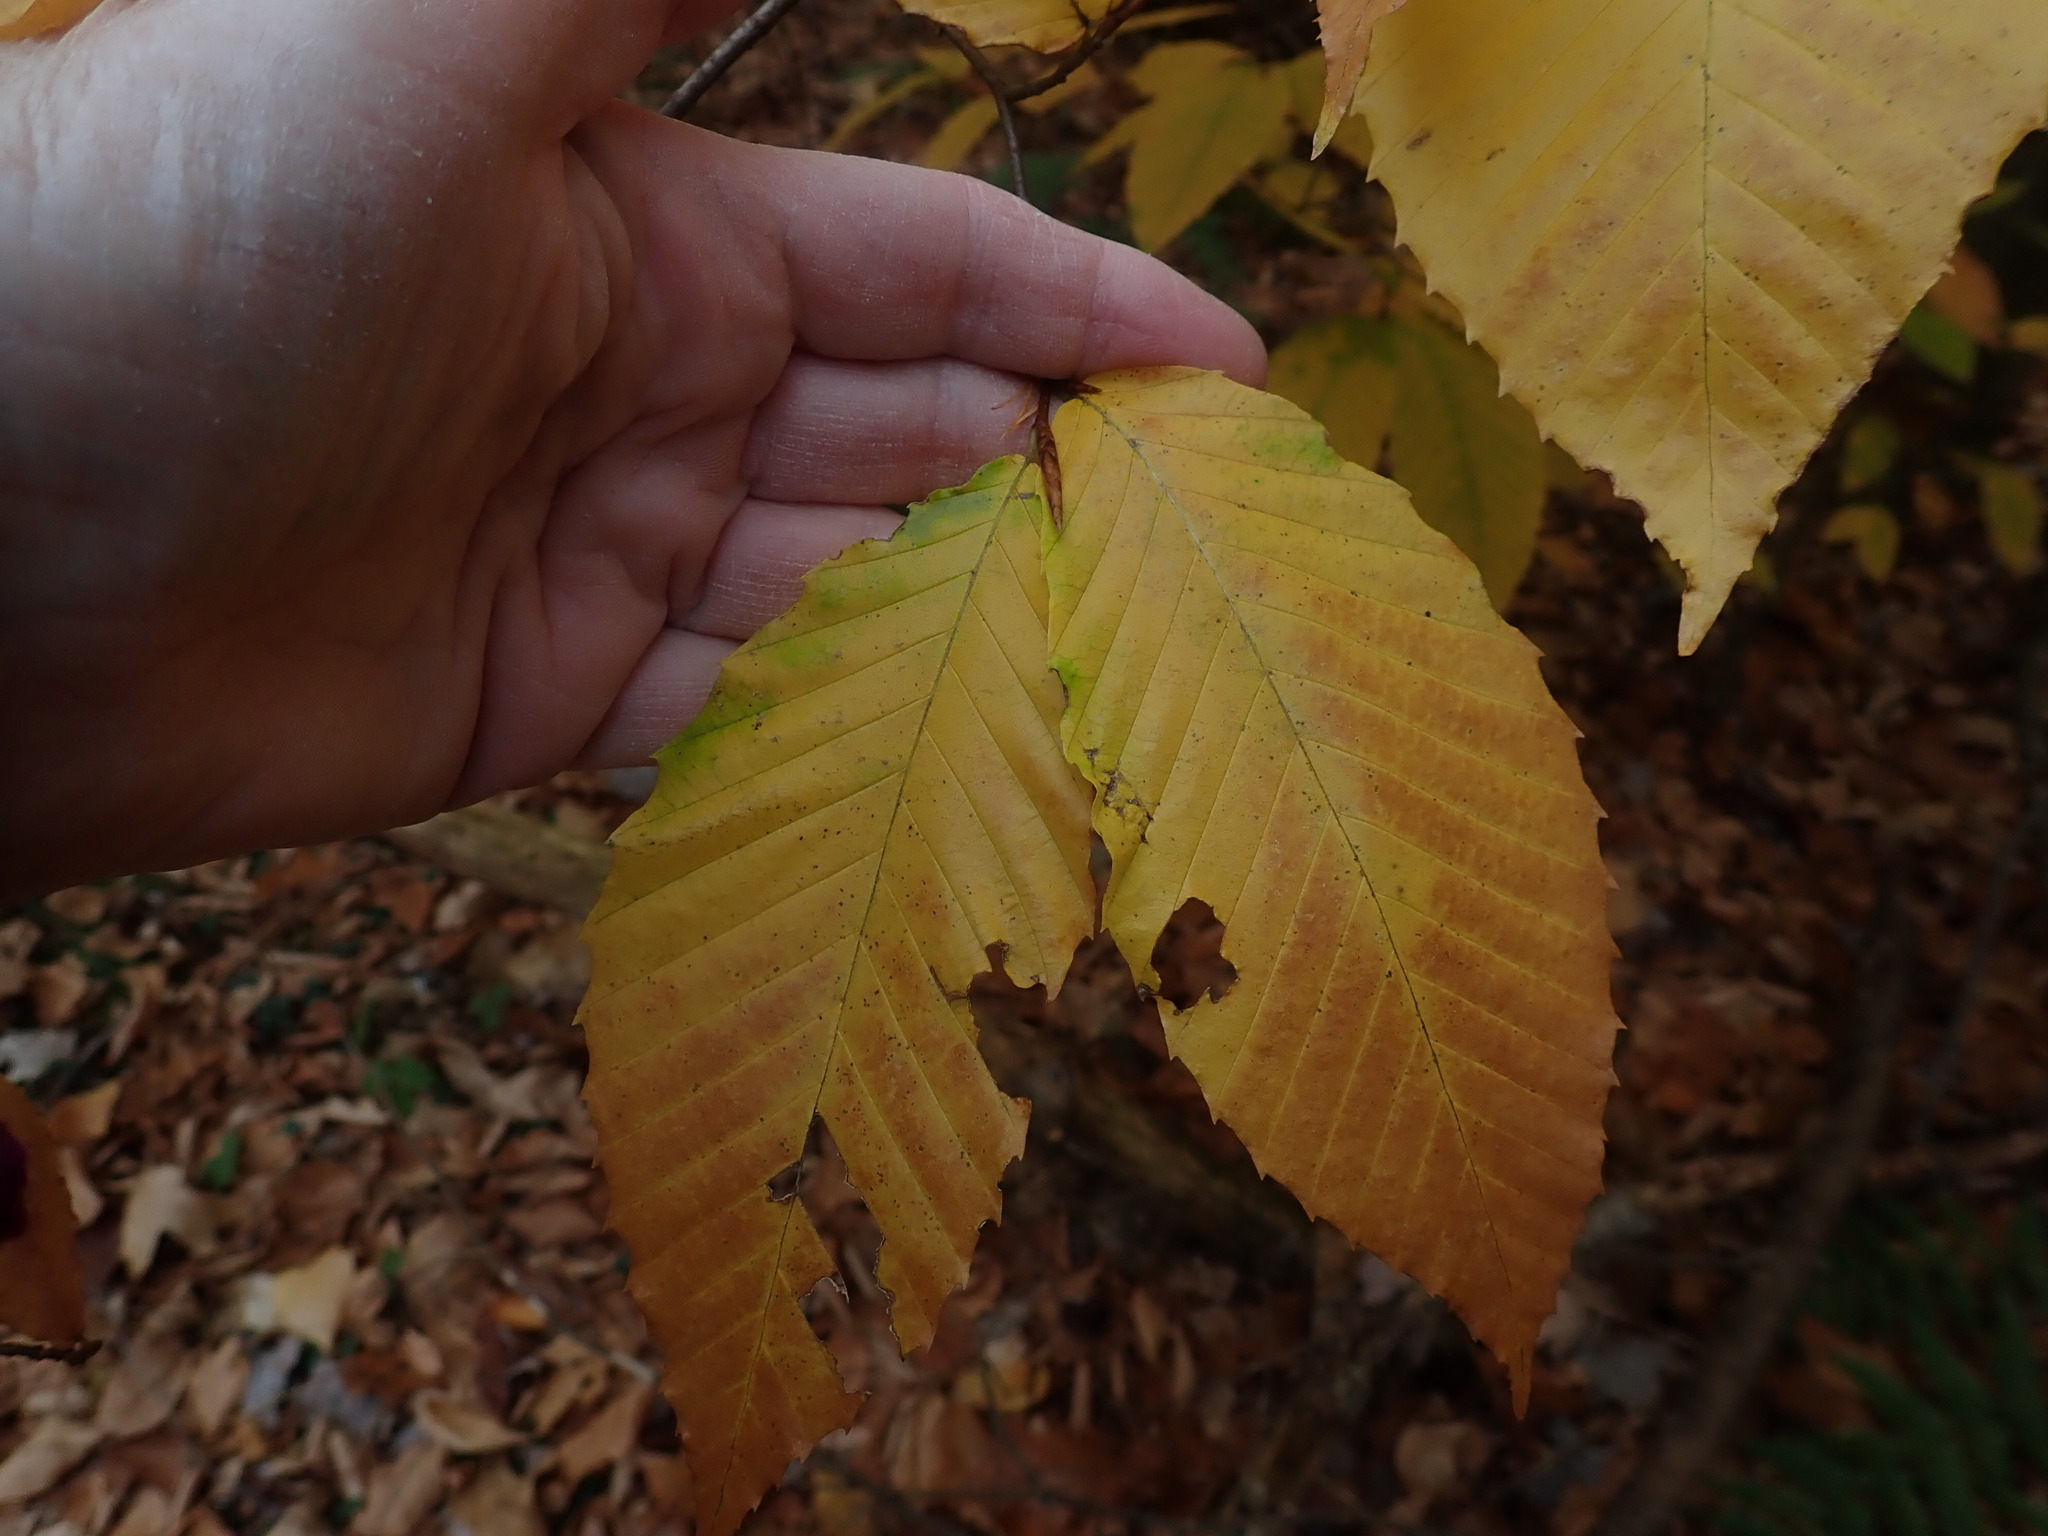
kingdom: Plantae
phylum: Tracheophyta
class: Magnoliopsida
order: Fagales
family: Fagaceae
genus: Fagus
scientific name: Fagus grandifolia
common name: American beech
